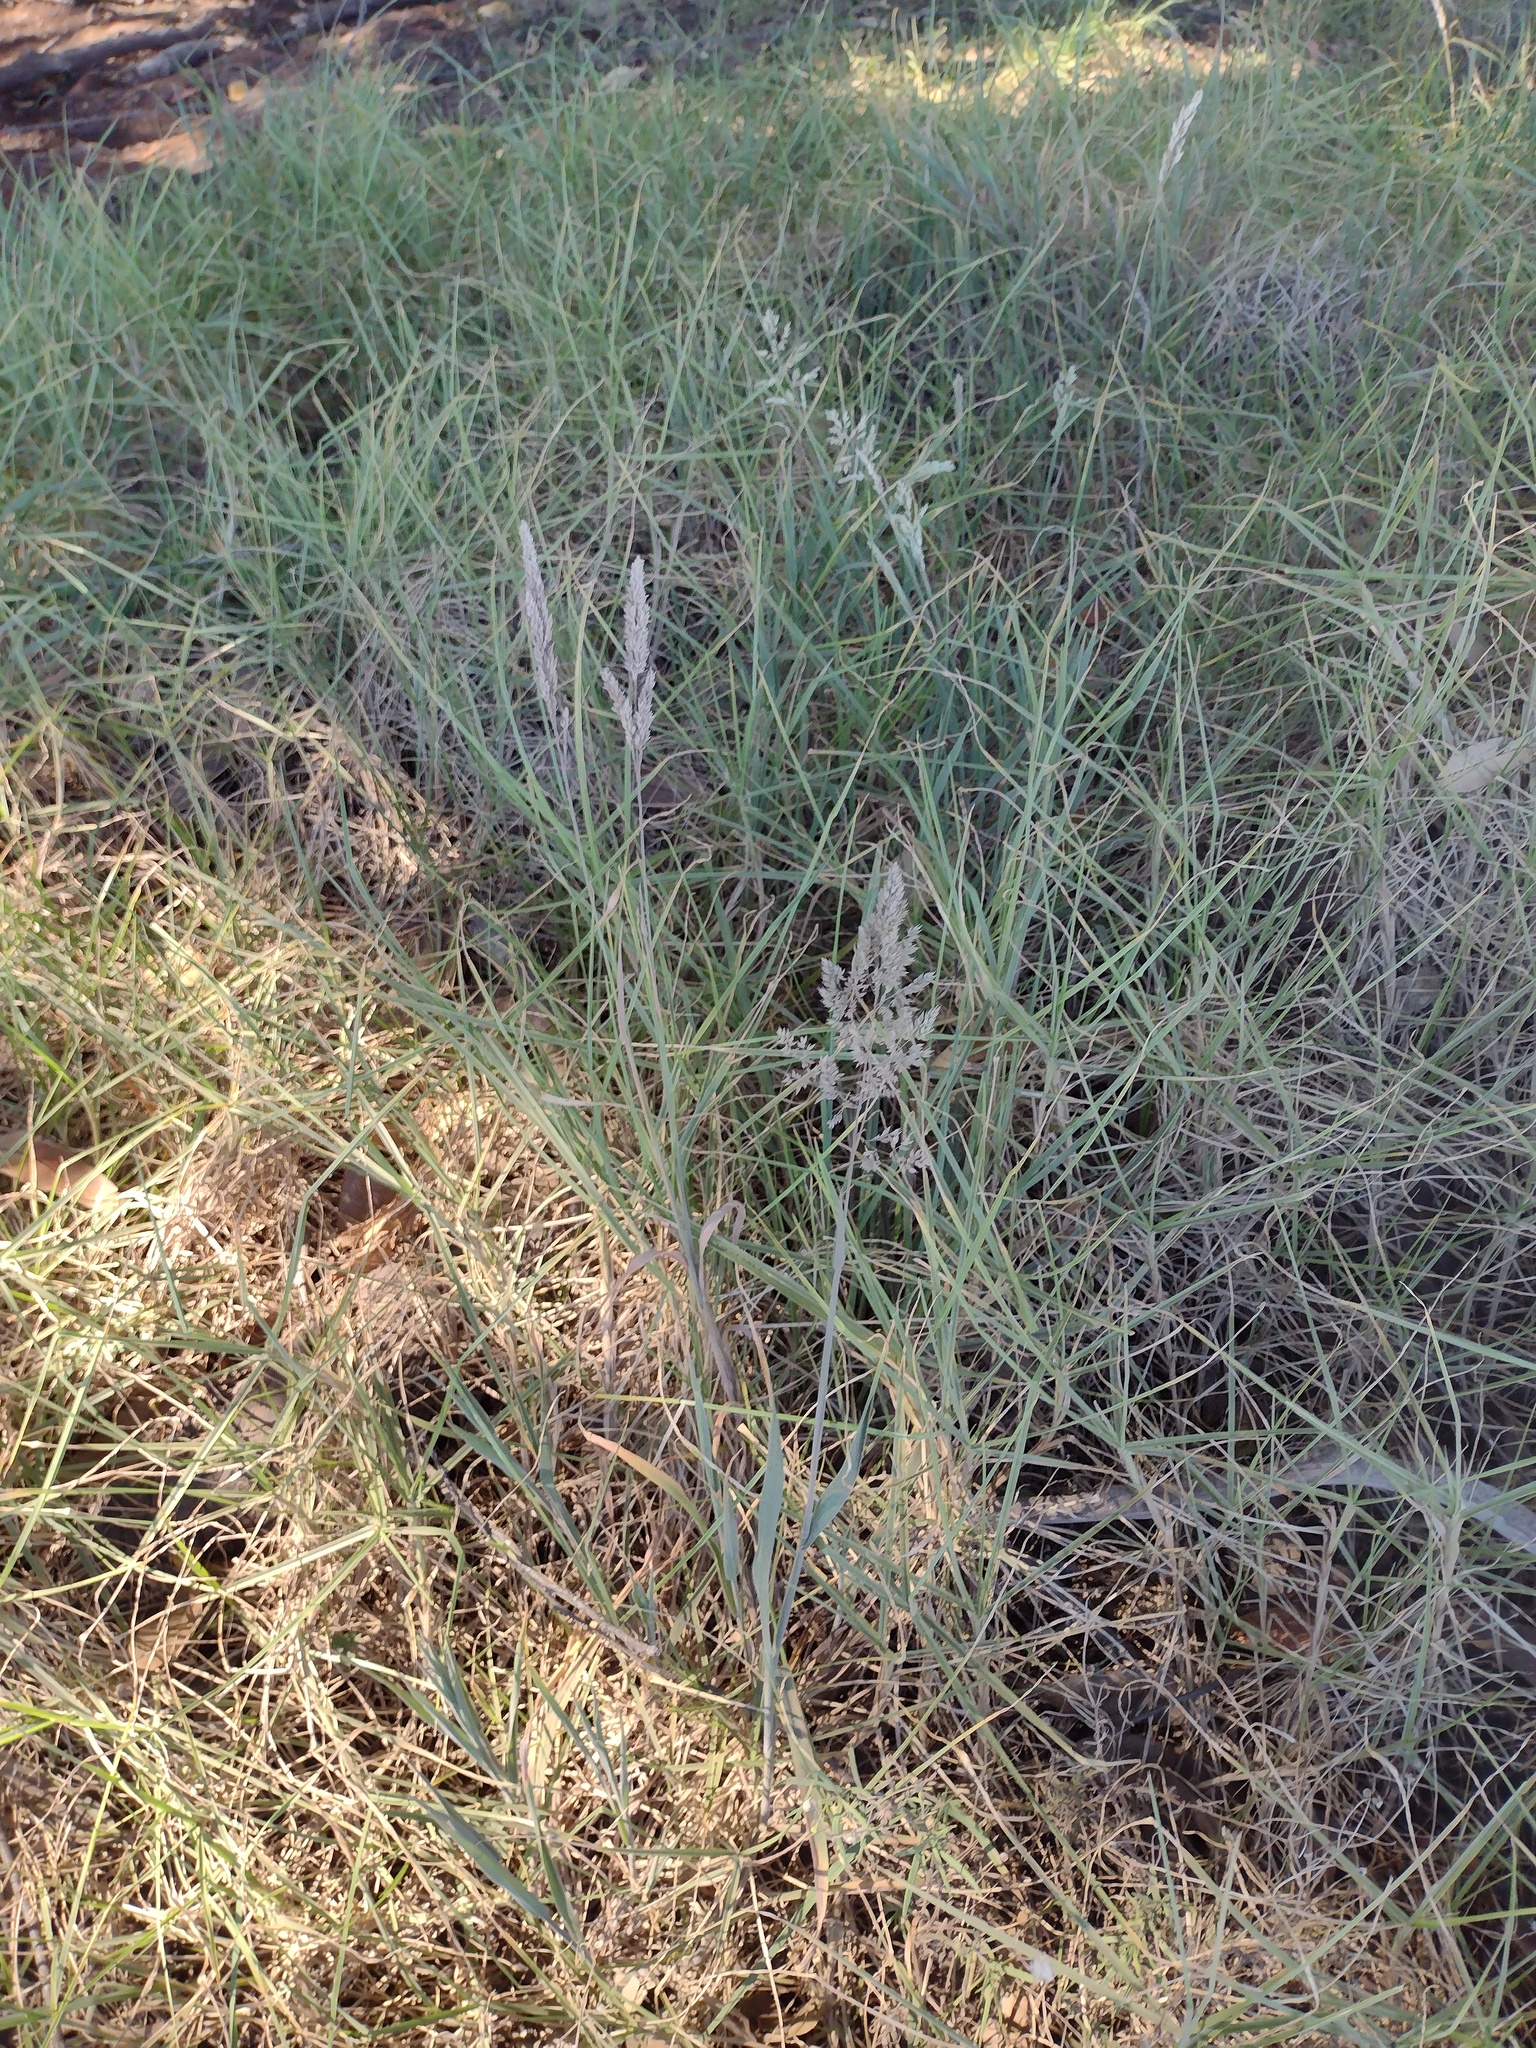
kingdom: Plantae
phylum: Tracheophyta
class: Liliopsida
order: Poales
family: Poaceae
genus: Holcus
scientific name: Holcus lanatus
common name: Yorkshire-fog
